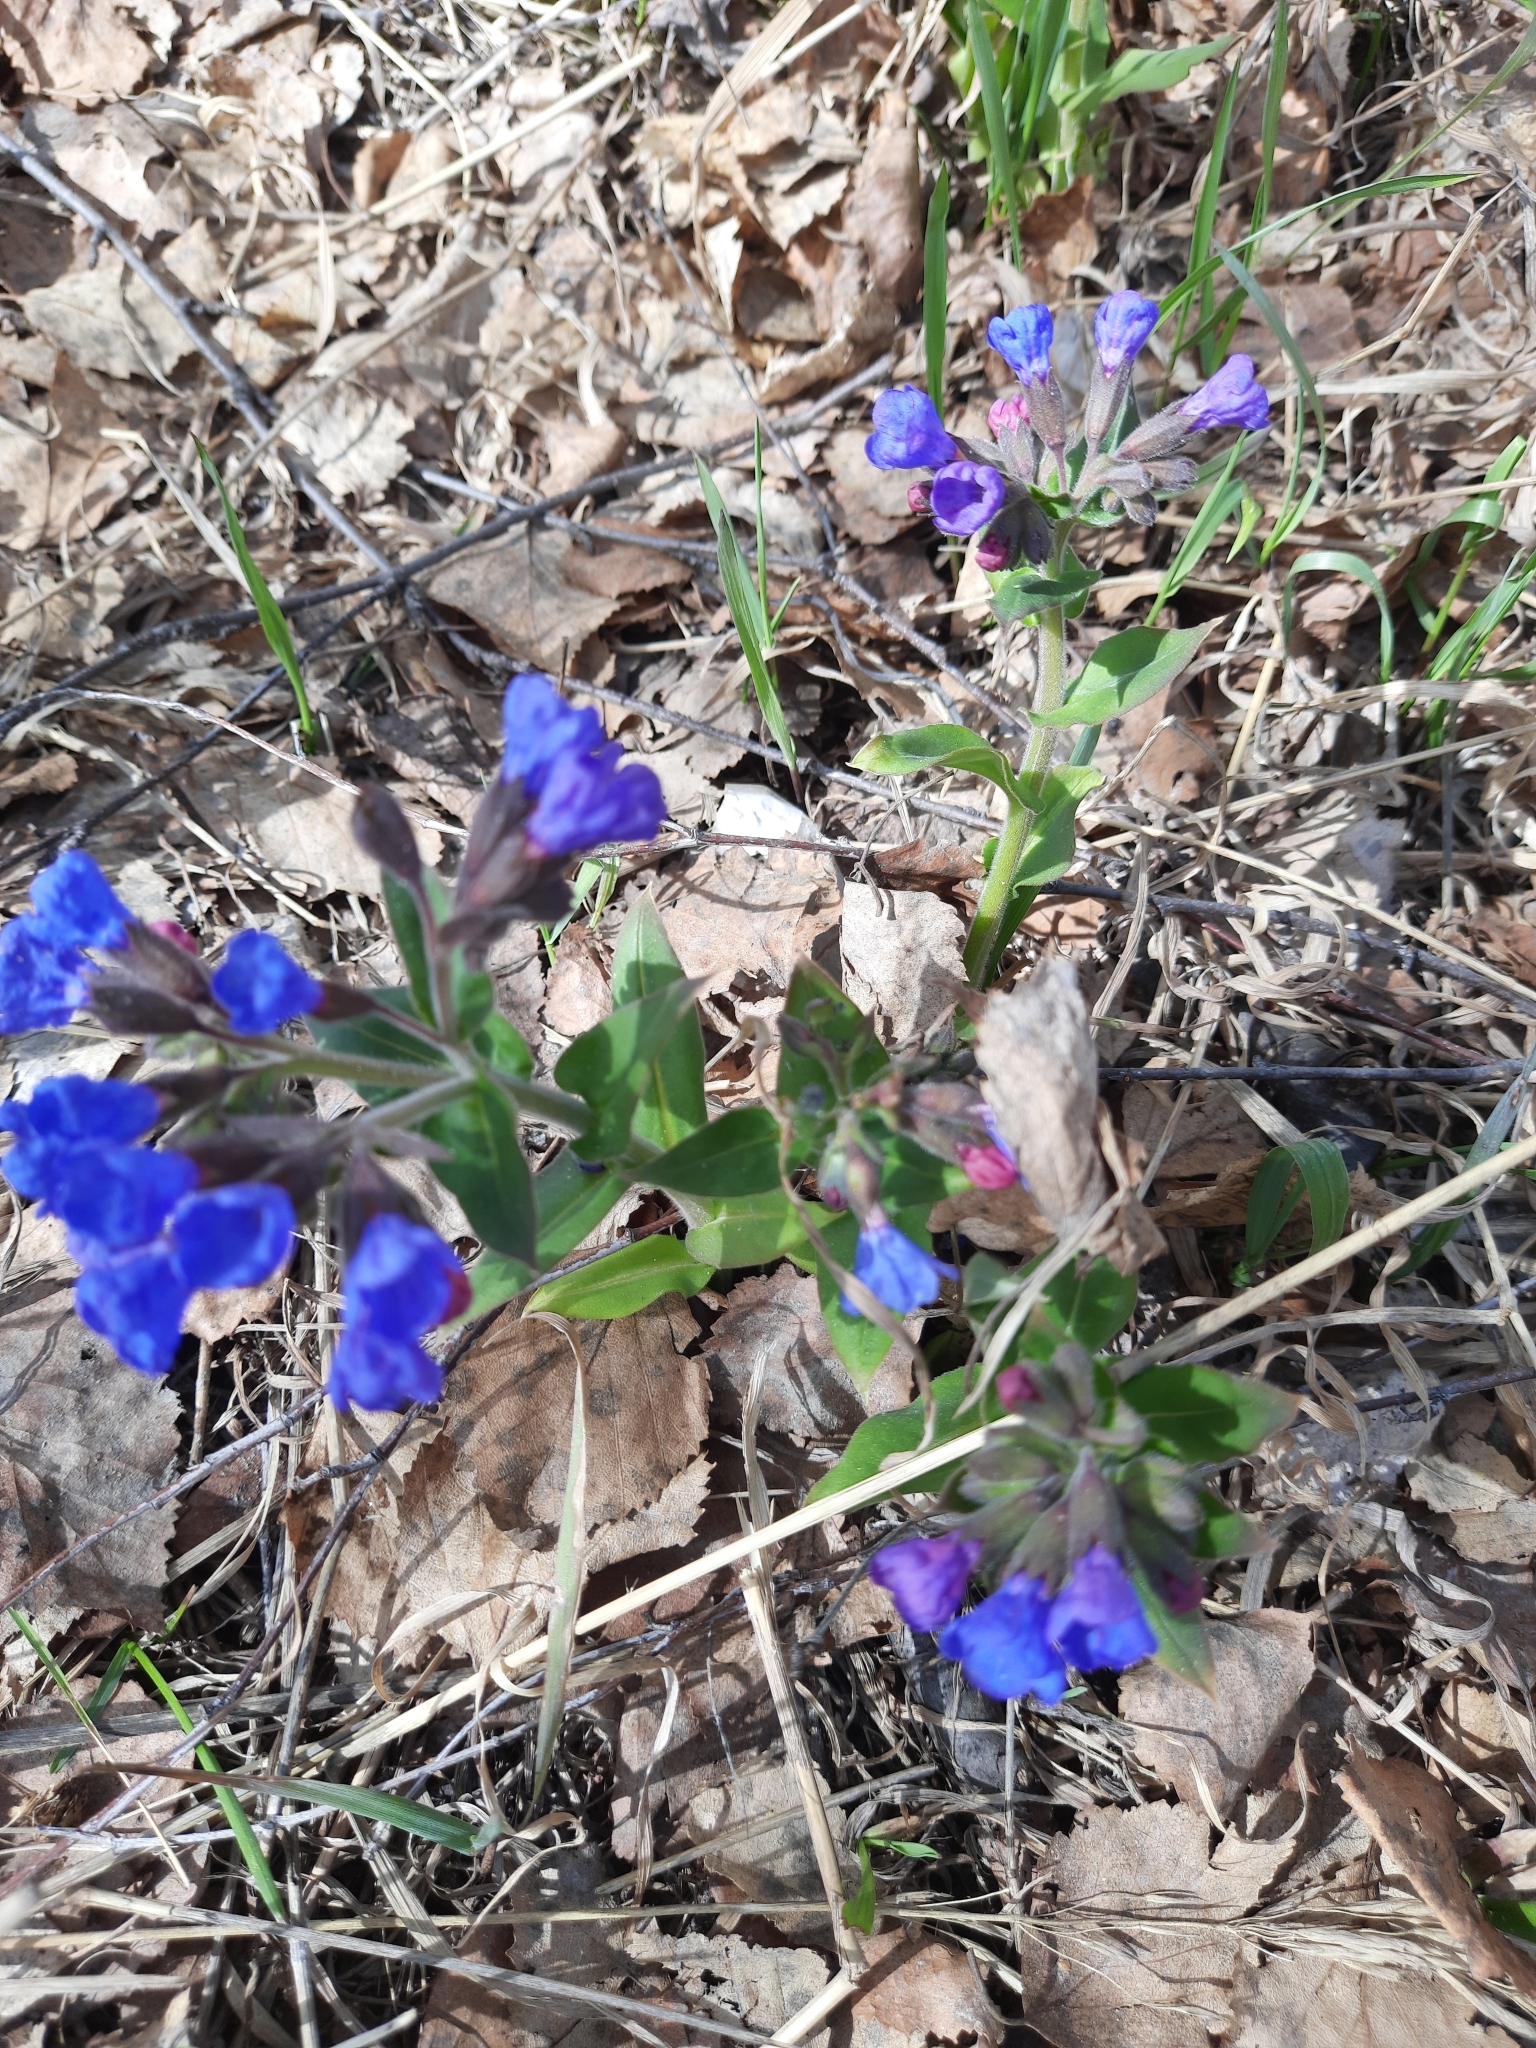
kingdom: Plantae
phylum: Tracheophyta
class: Magnoliopsida
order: Boraginales
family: Boraginaceae
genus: Pulmonaria
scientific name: Pulmonaria mollis
